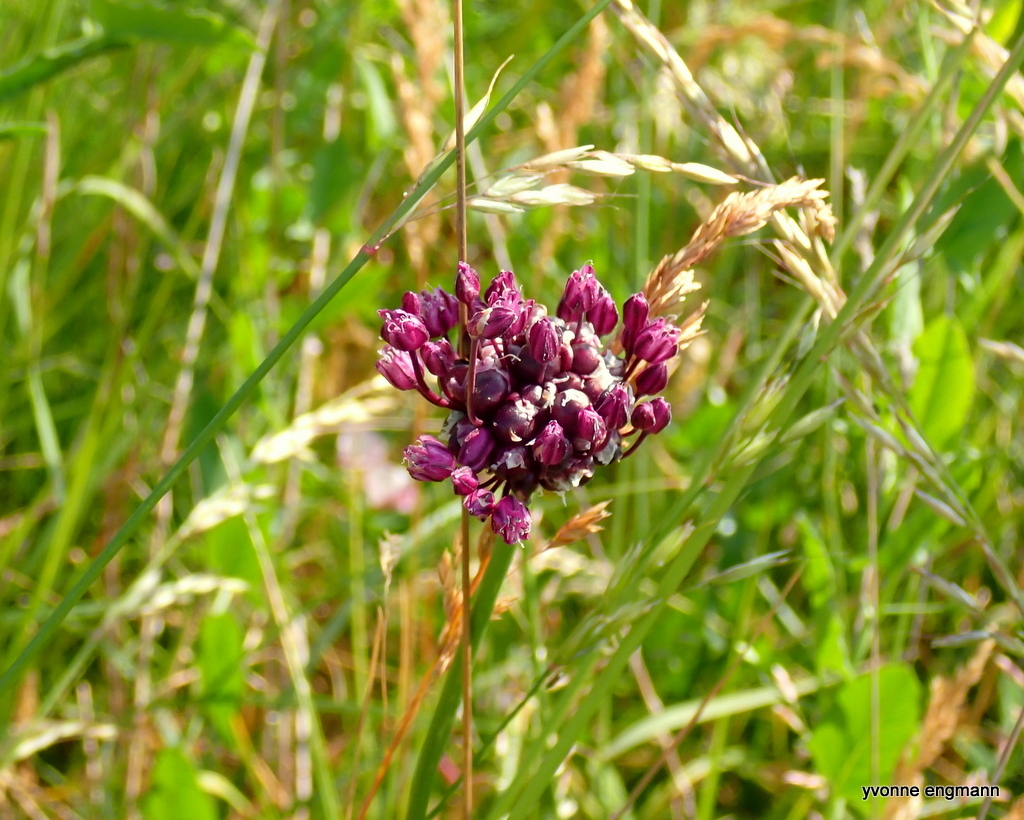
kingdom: Plantae
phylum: Tracheophyta
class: Liliopsida
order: Asparagales
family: Amaryllidaceae
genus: Allium
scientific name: Allium scorodoprasum
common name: Sand leek
